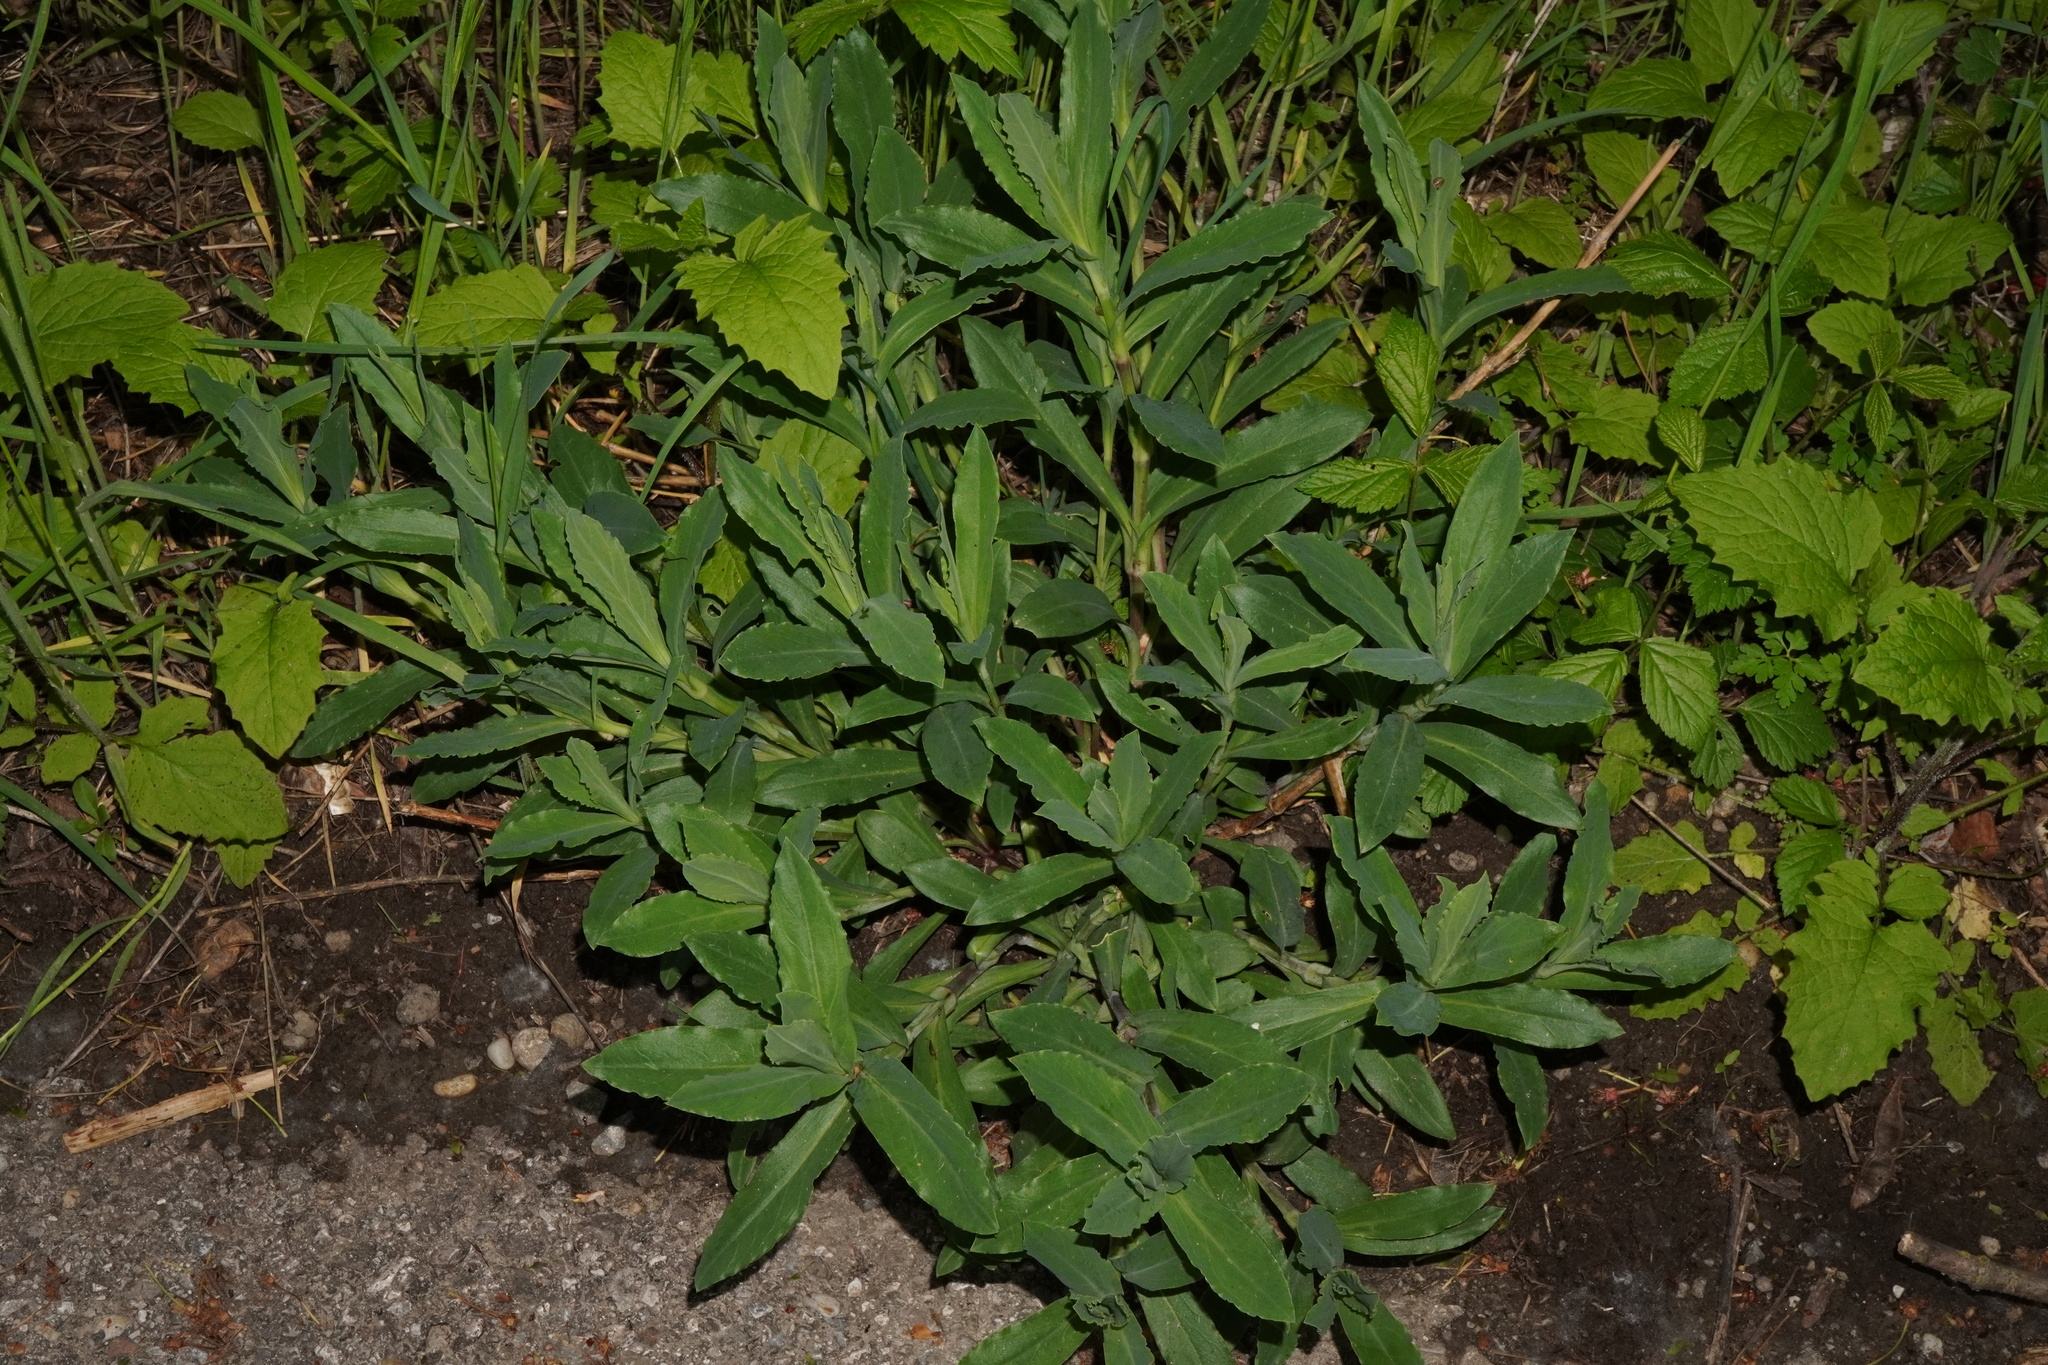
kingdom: Plantae
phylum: Tracheophyta
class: Magnoliopsida
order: Caryophyllales
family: Caryophyllaceae
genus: Silene
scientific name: Silene vulgaris
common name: Bladder campion
